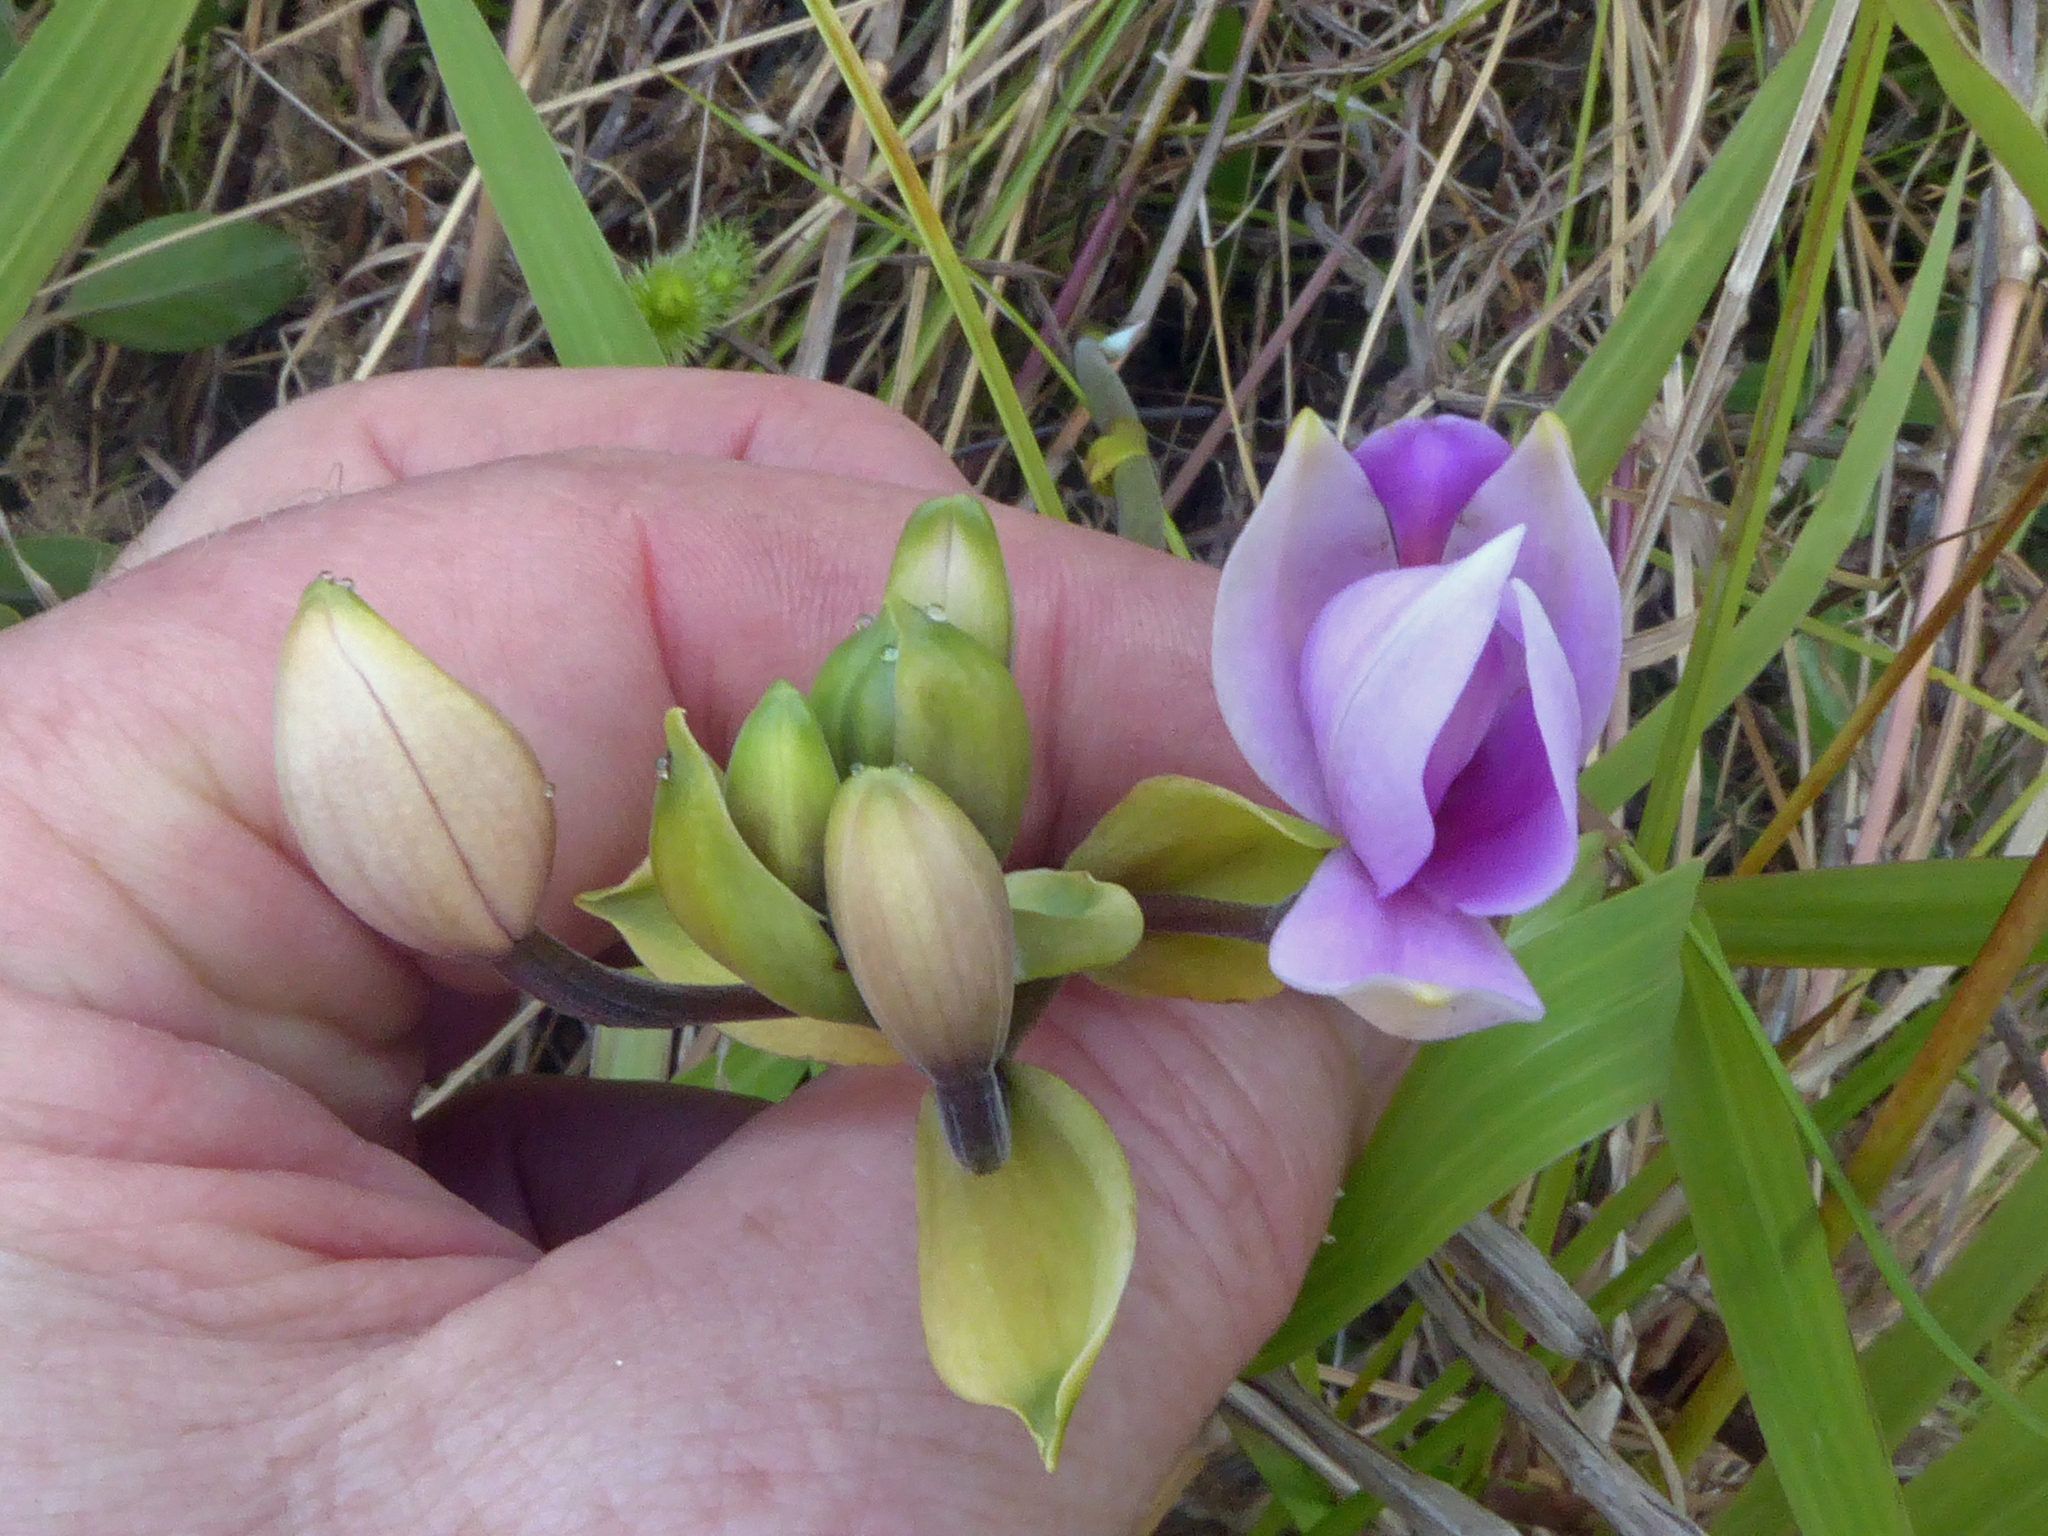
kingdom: Plantae
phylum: Tracheophyta
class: Liliopsida
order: Asparagales
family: Orchidaceae
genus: Spathoglottis
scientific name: Spathoglottis plicata
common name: Philippine ground orchid
